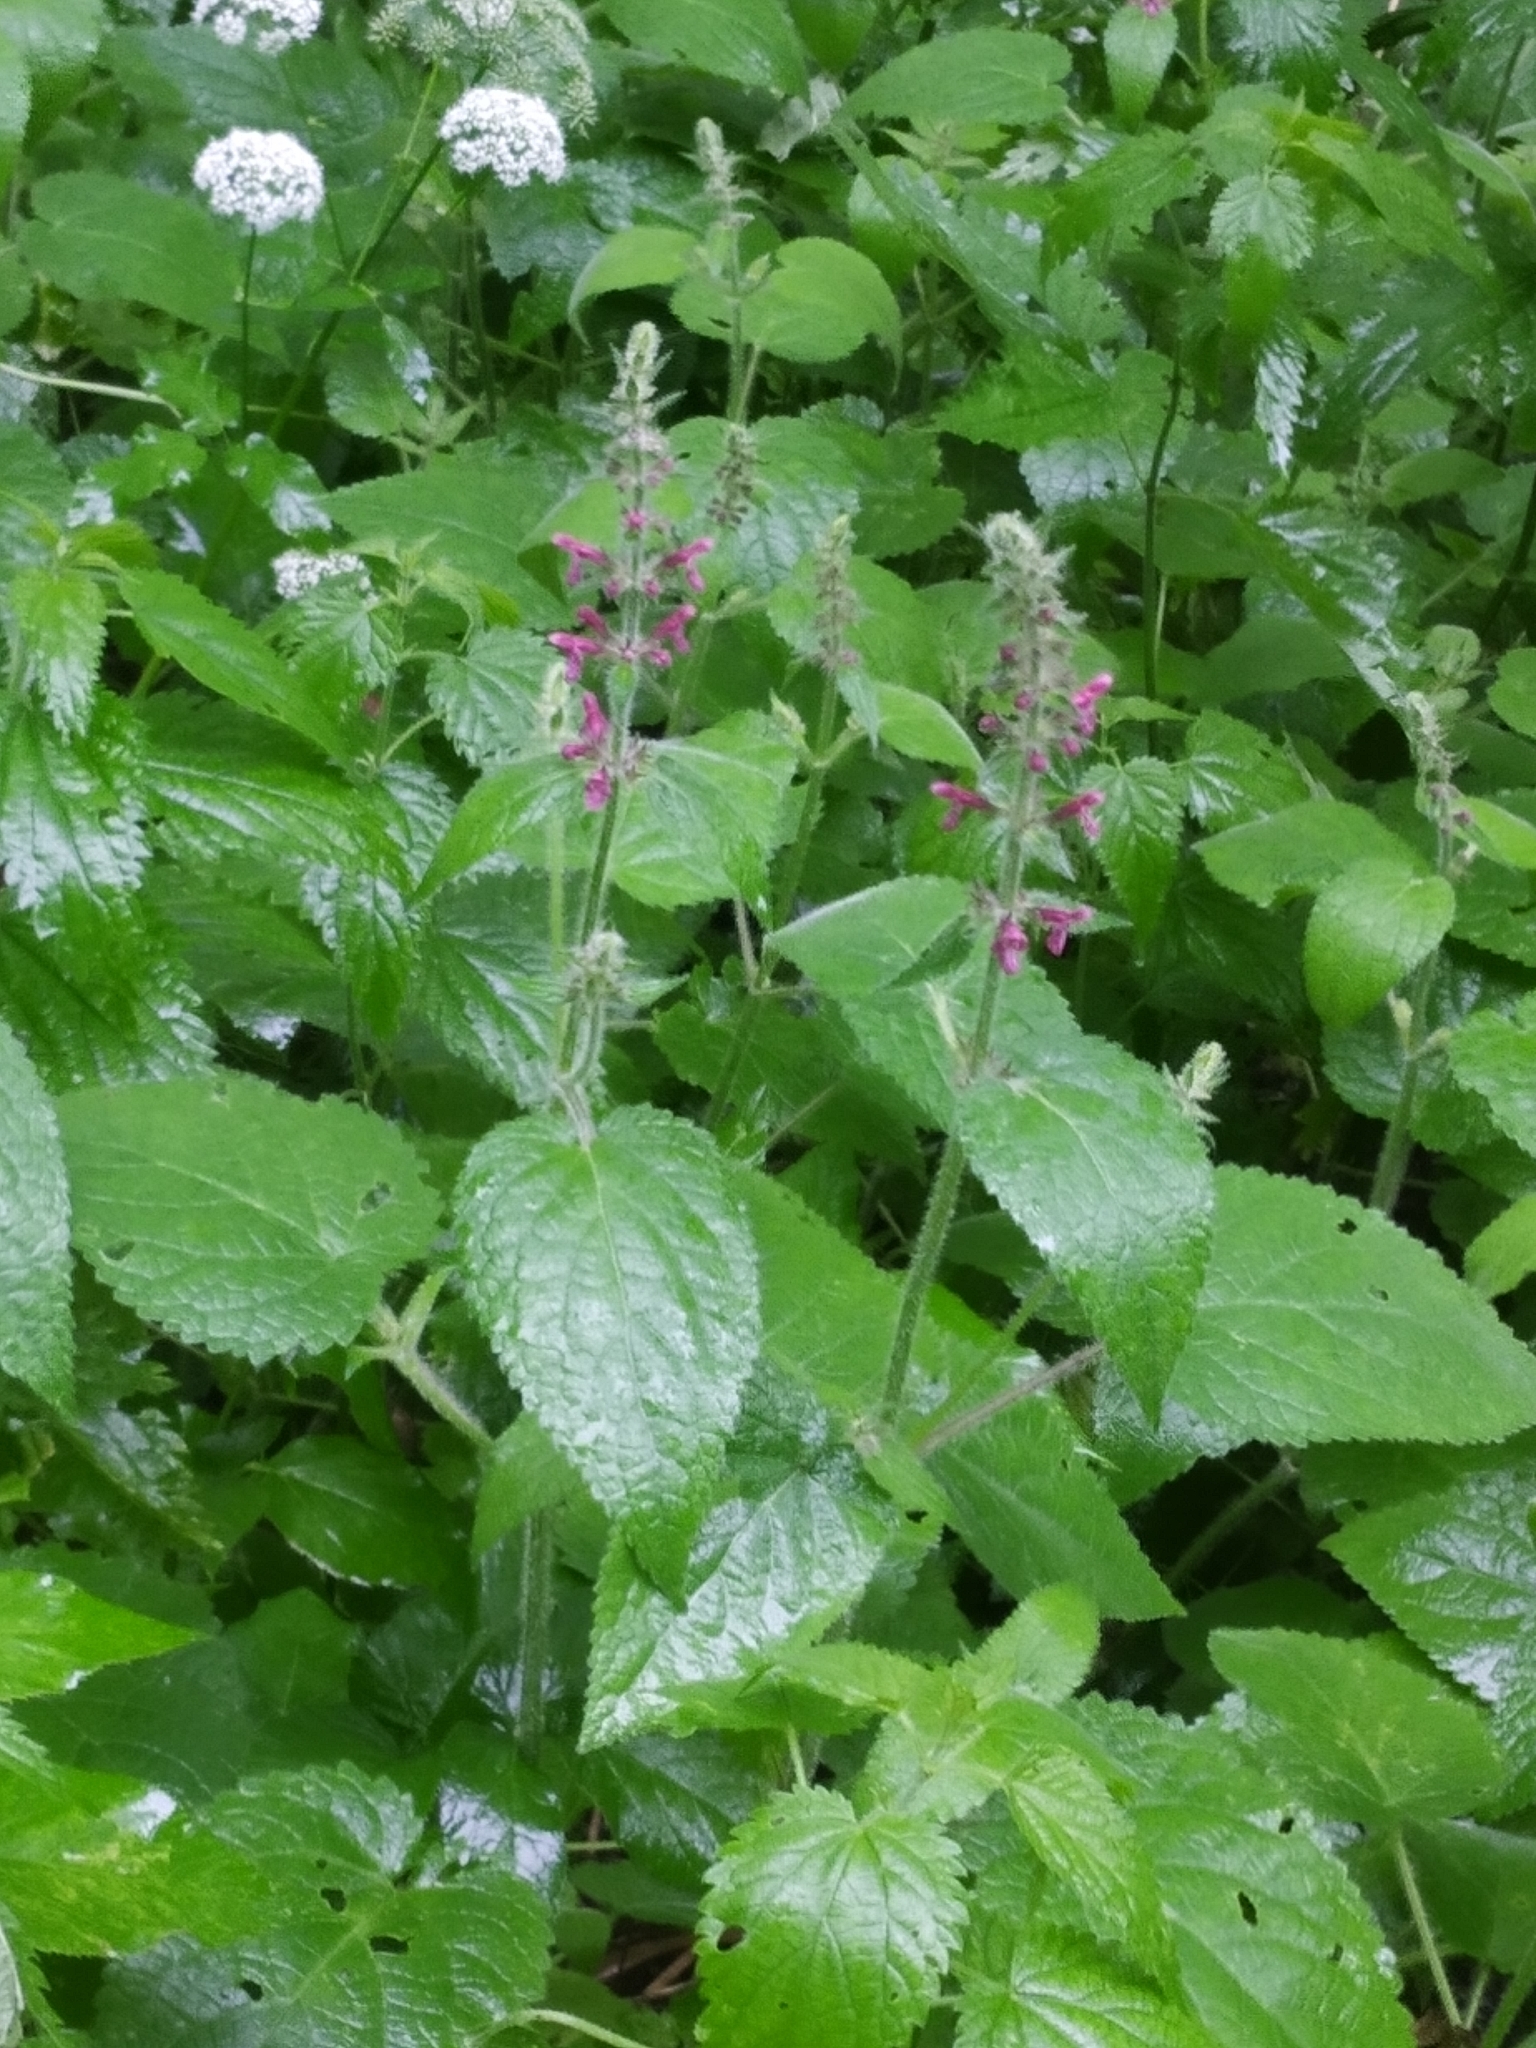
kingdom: Plantae
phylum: Tracheophyta
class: Magnoliopsida
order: Lamiales
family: Lamiaceae
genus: Stachys
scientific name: Stachys sylvatica
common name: Hedge woundwort
